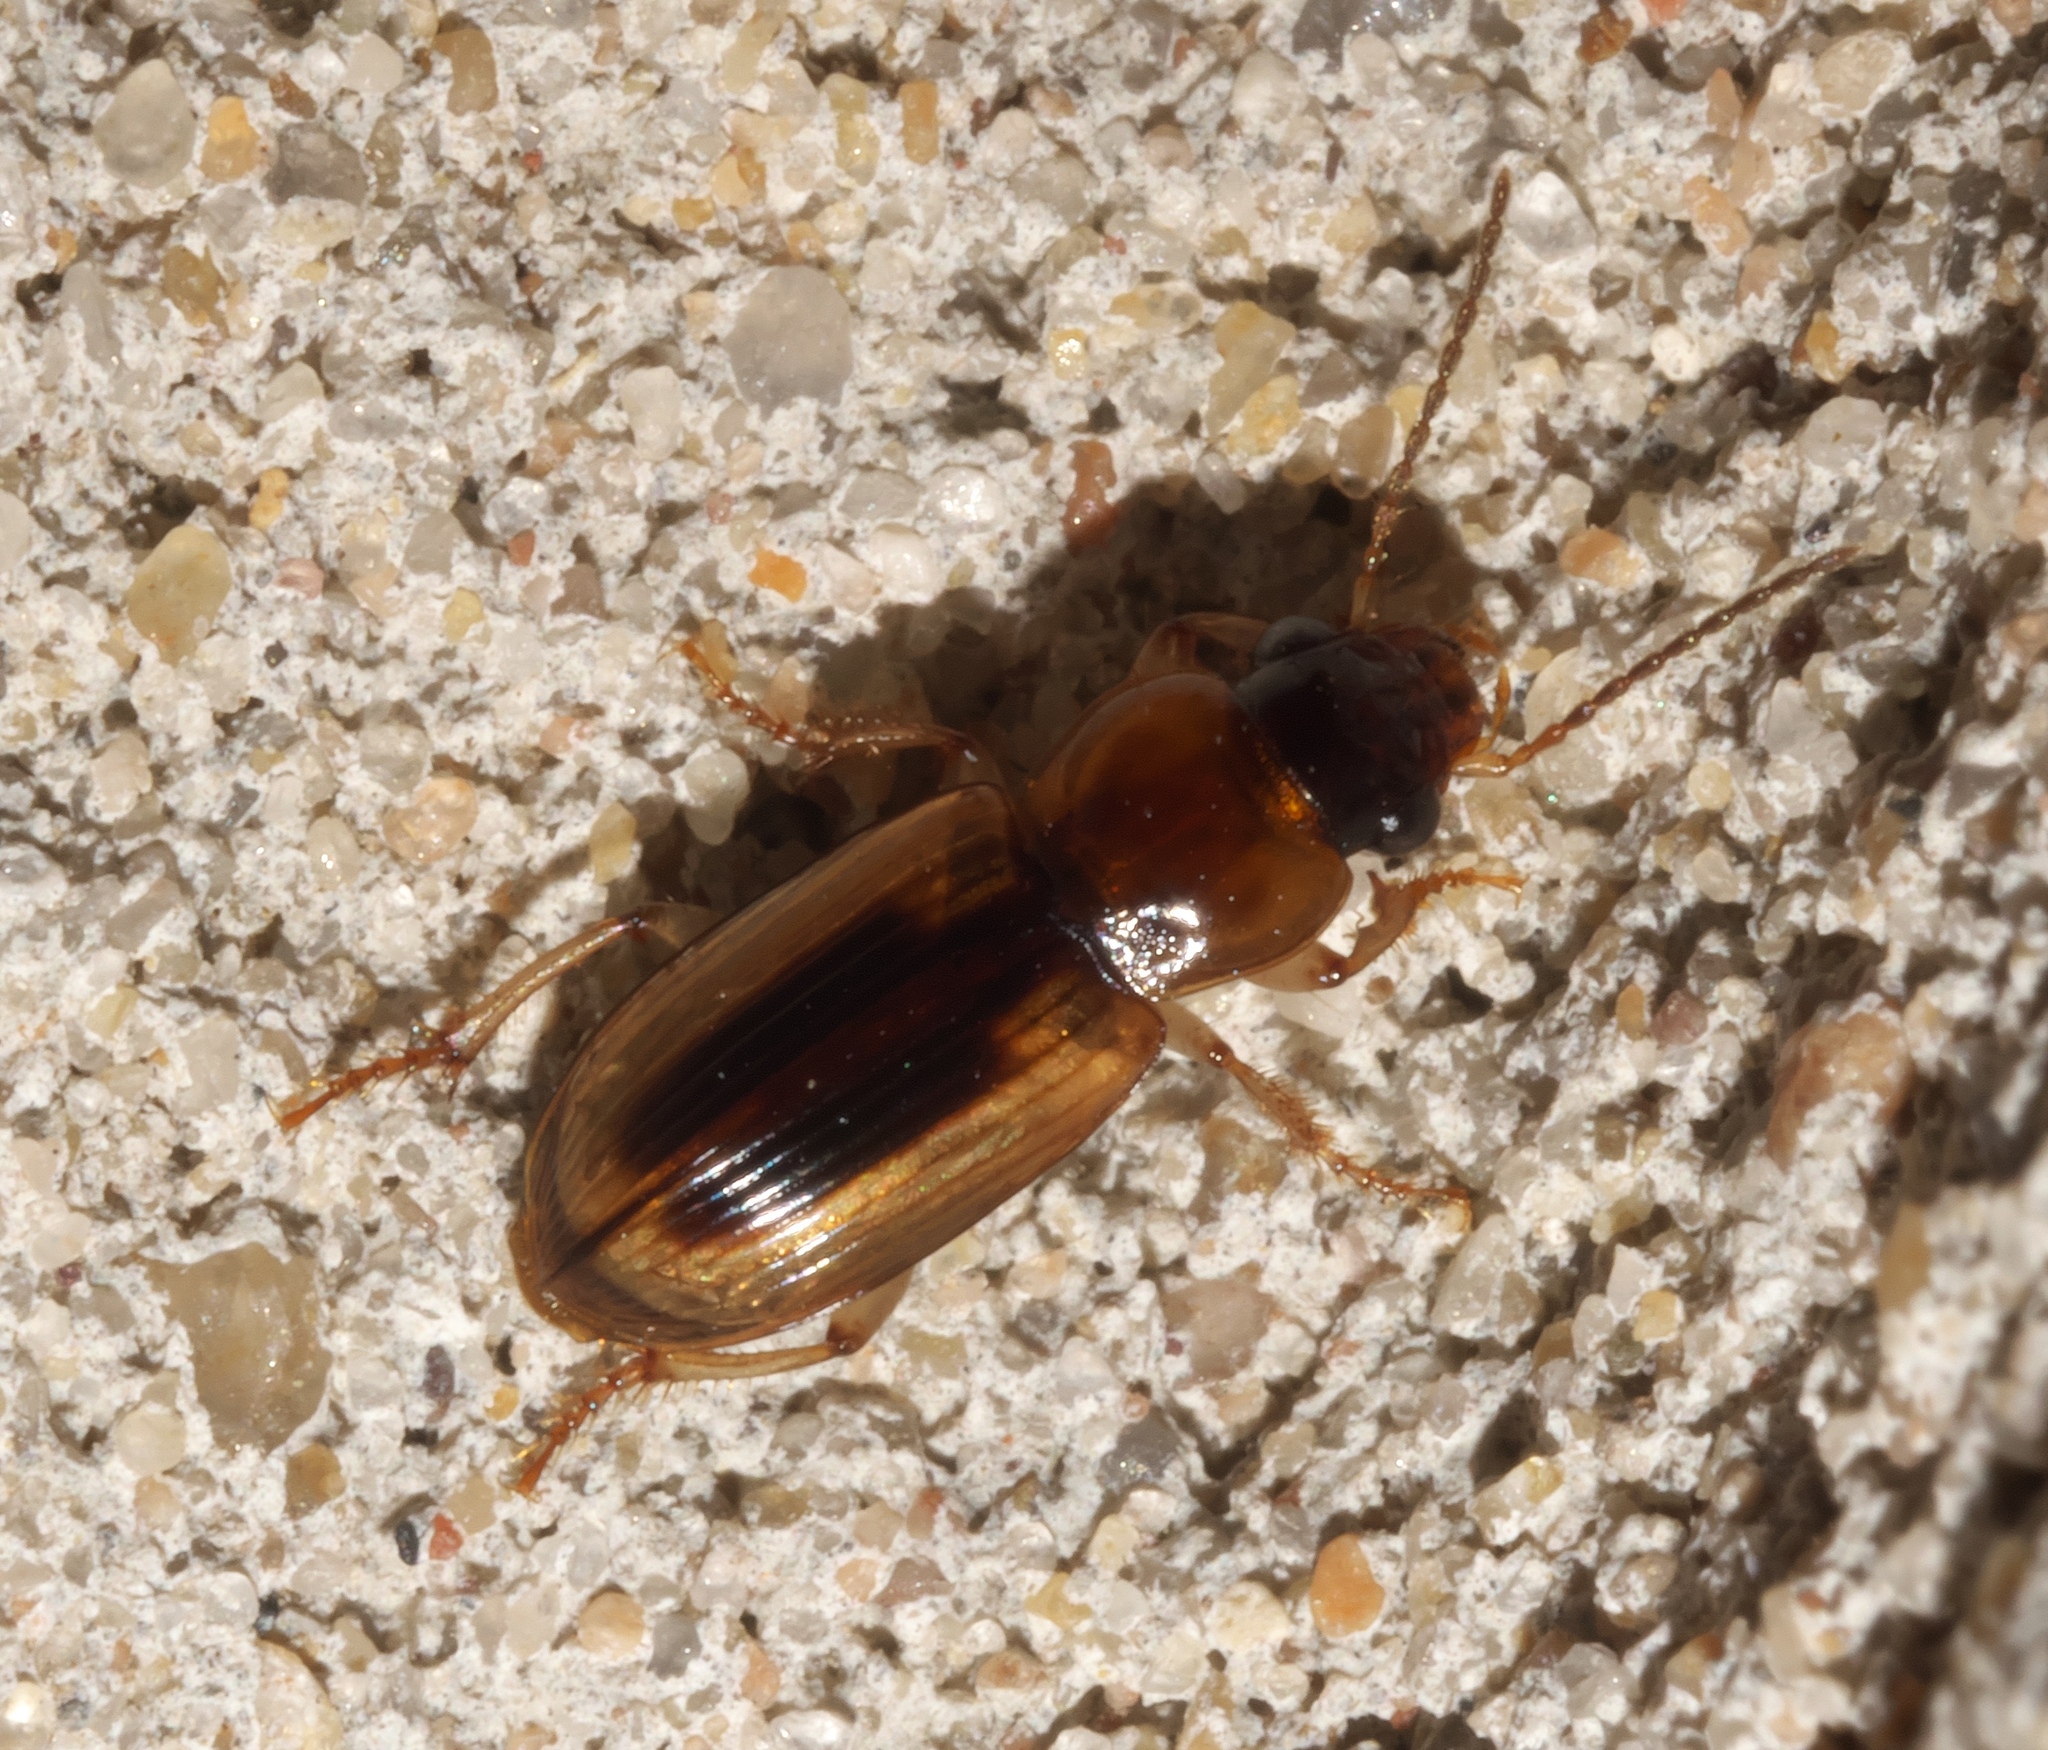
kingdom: Animalia
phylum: Arthropoda
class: Insecta
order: Coleoptera
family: Carabidae
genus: Stenolophus
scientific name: Stenolophus lecontei
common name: Leconte's seedcorn beetle
